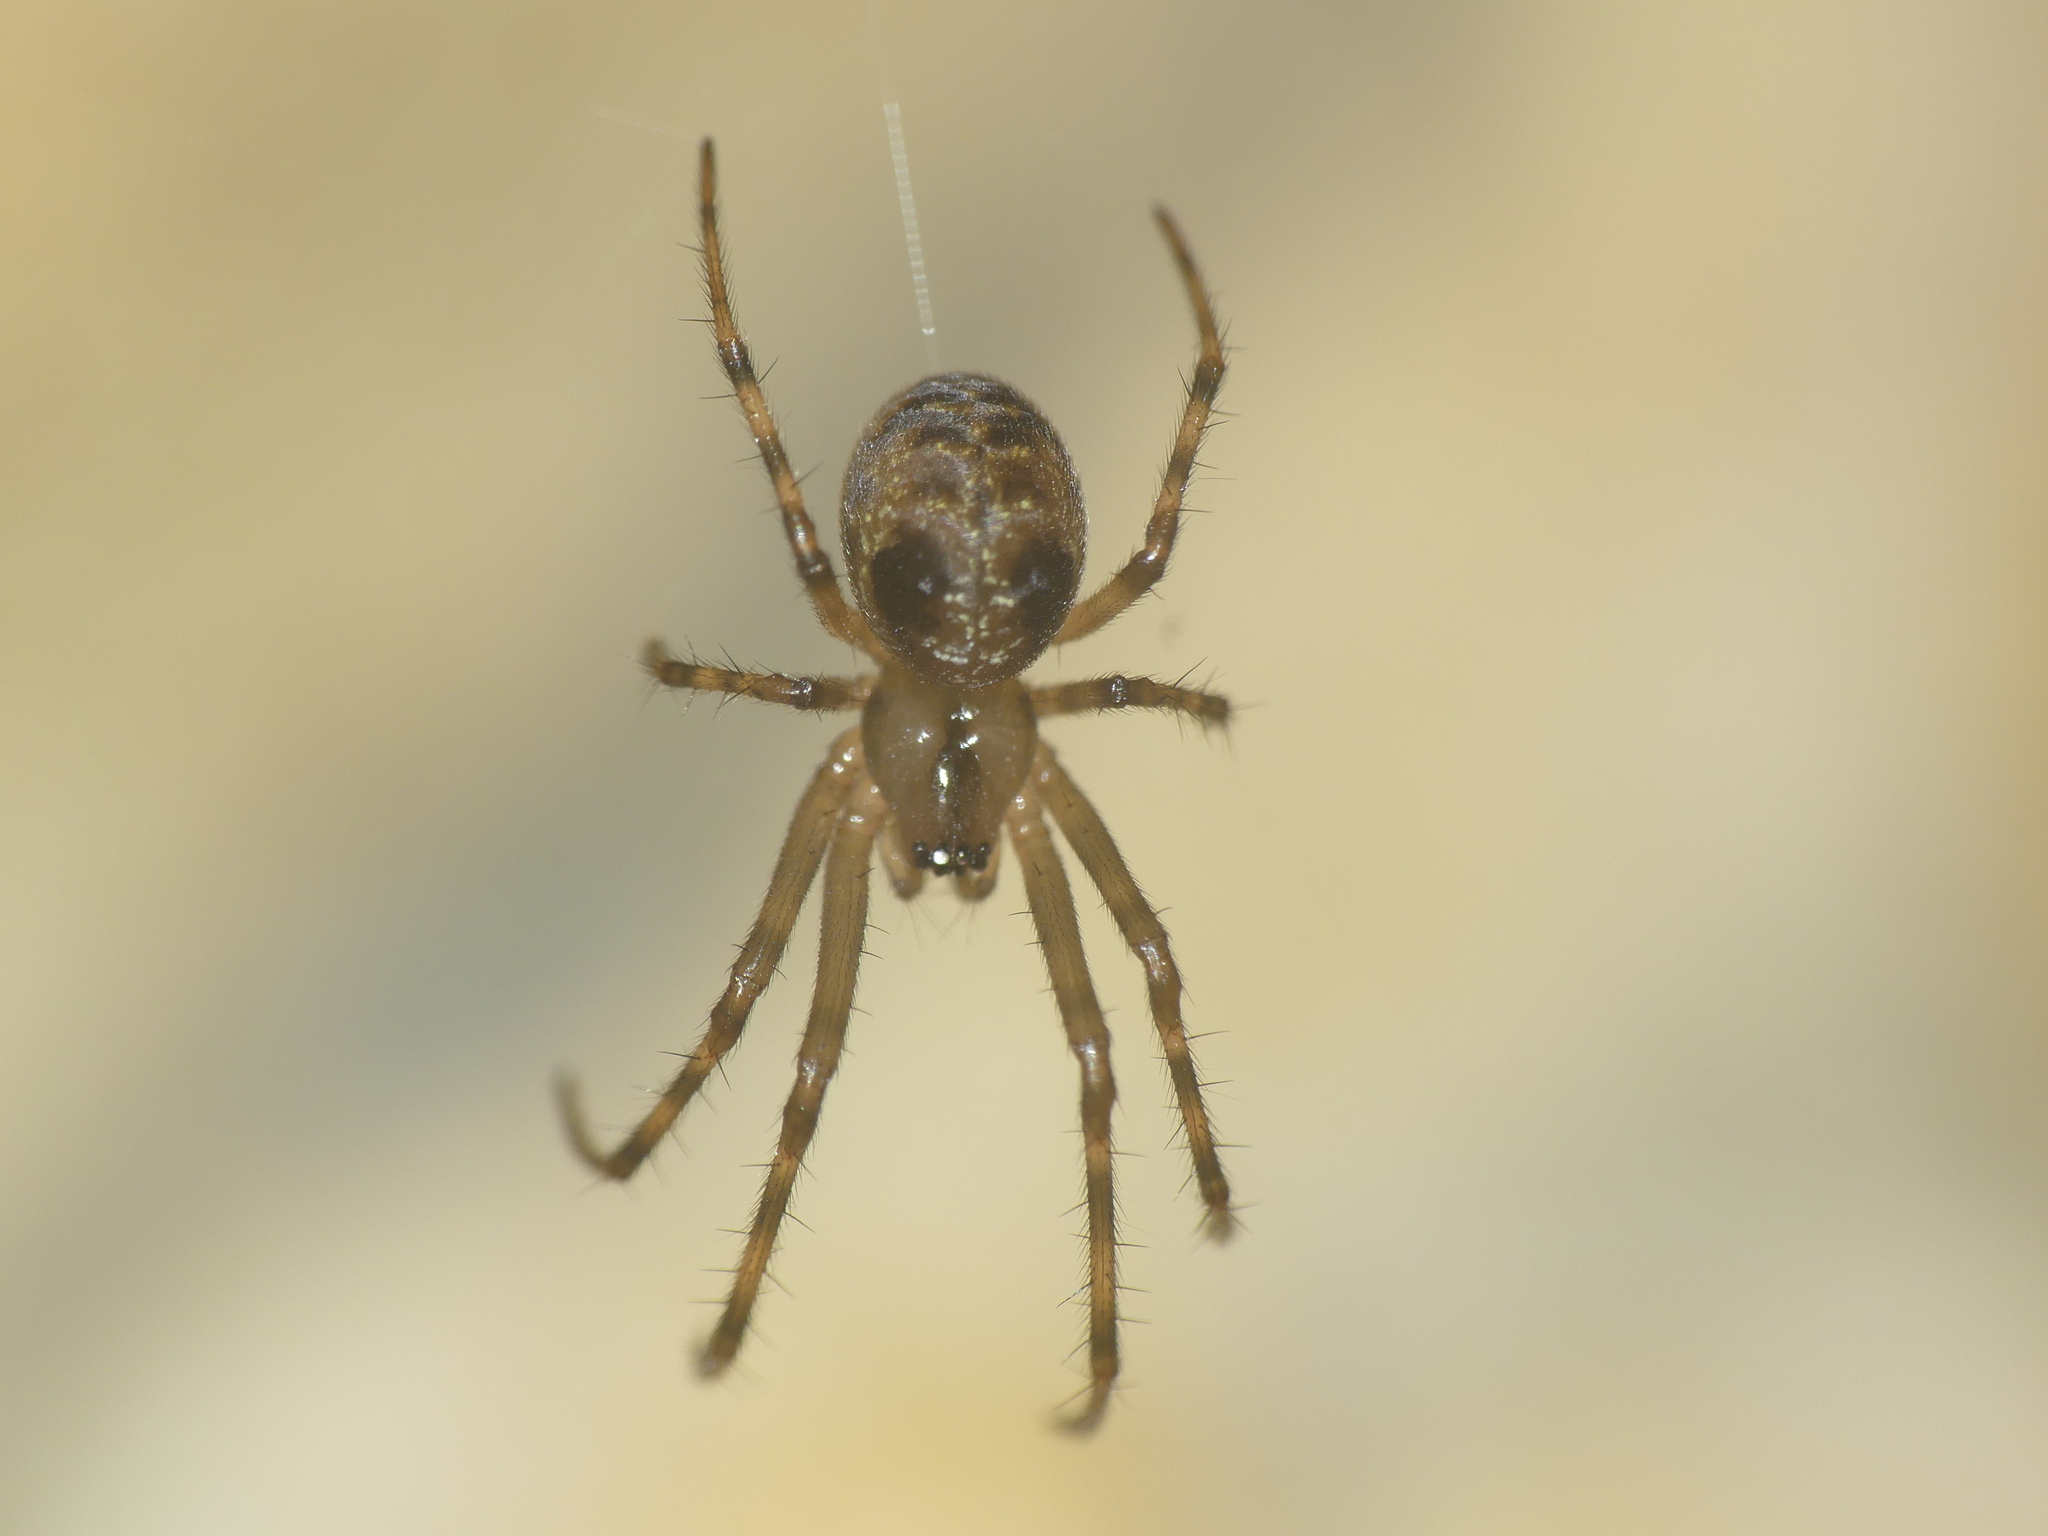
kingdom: Animalia
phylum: Arthropoda
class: Arachnida
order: Araneae
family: Tetragnathidae
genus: Meta
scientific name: Meta menardi
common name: Cave spider
